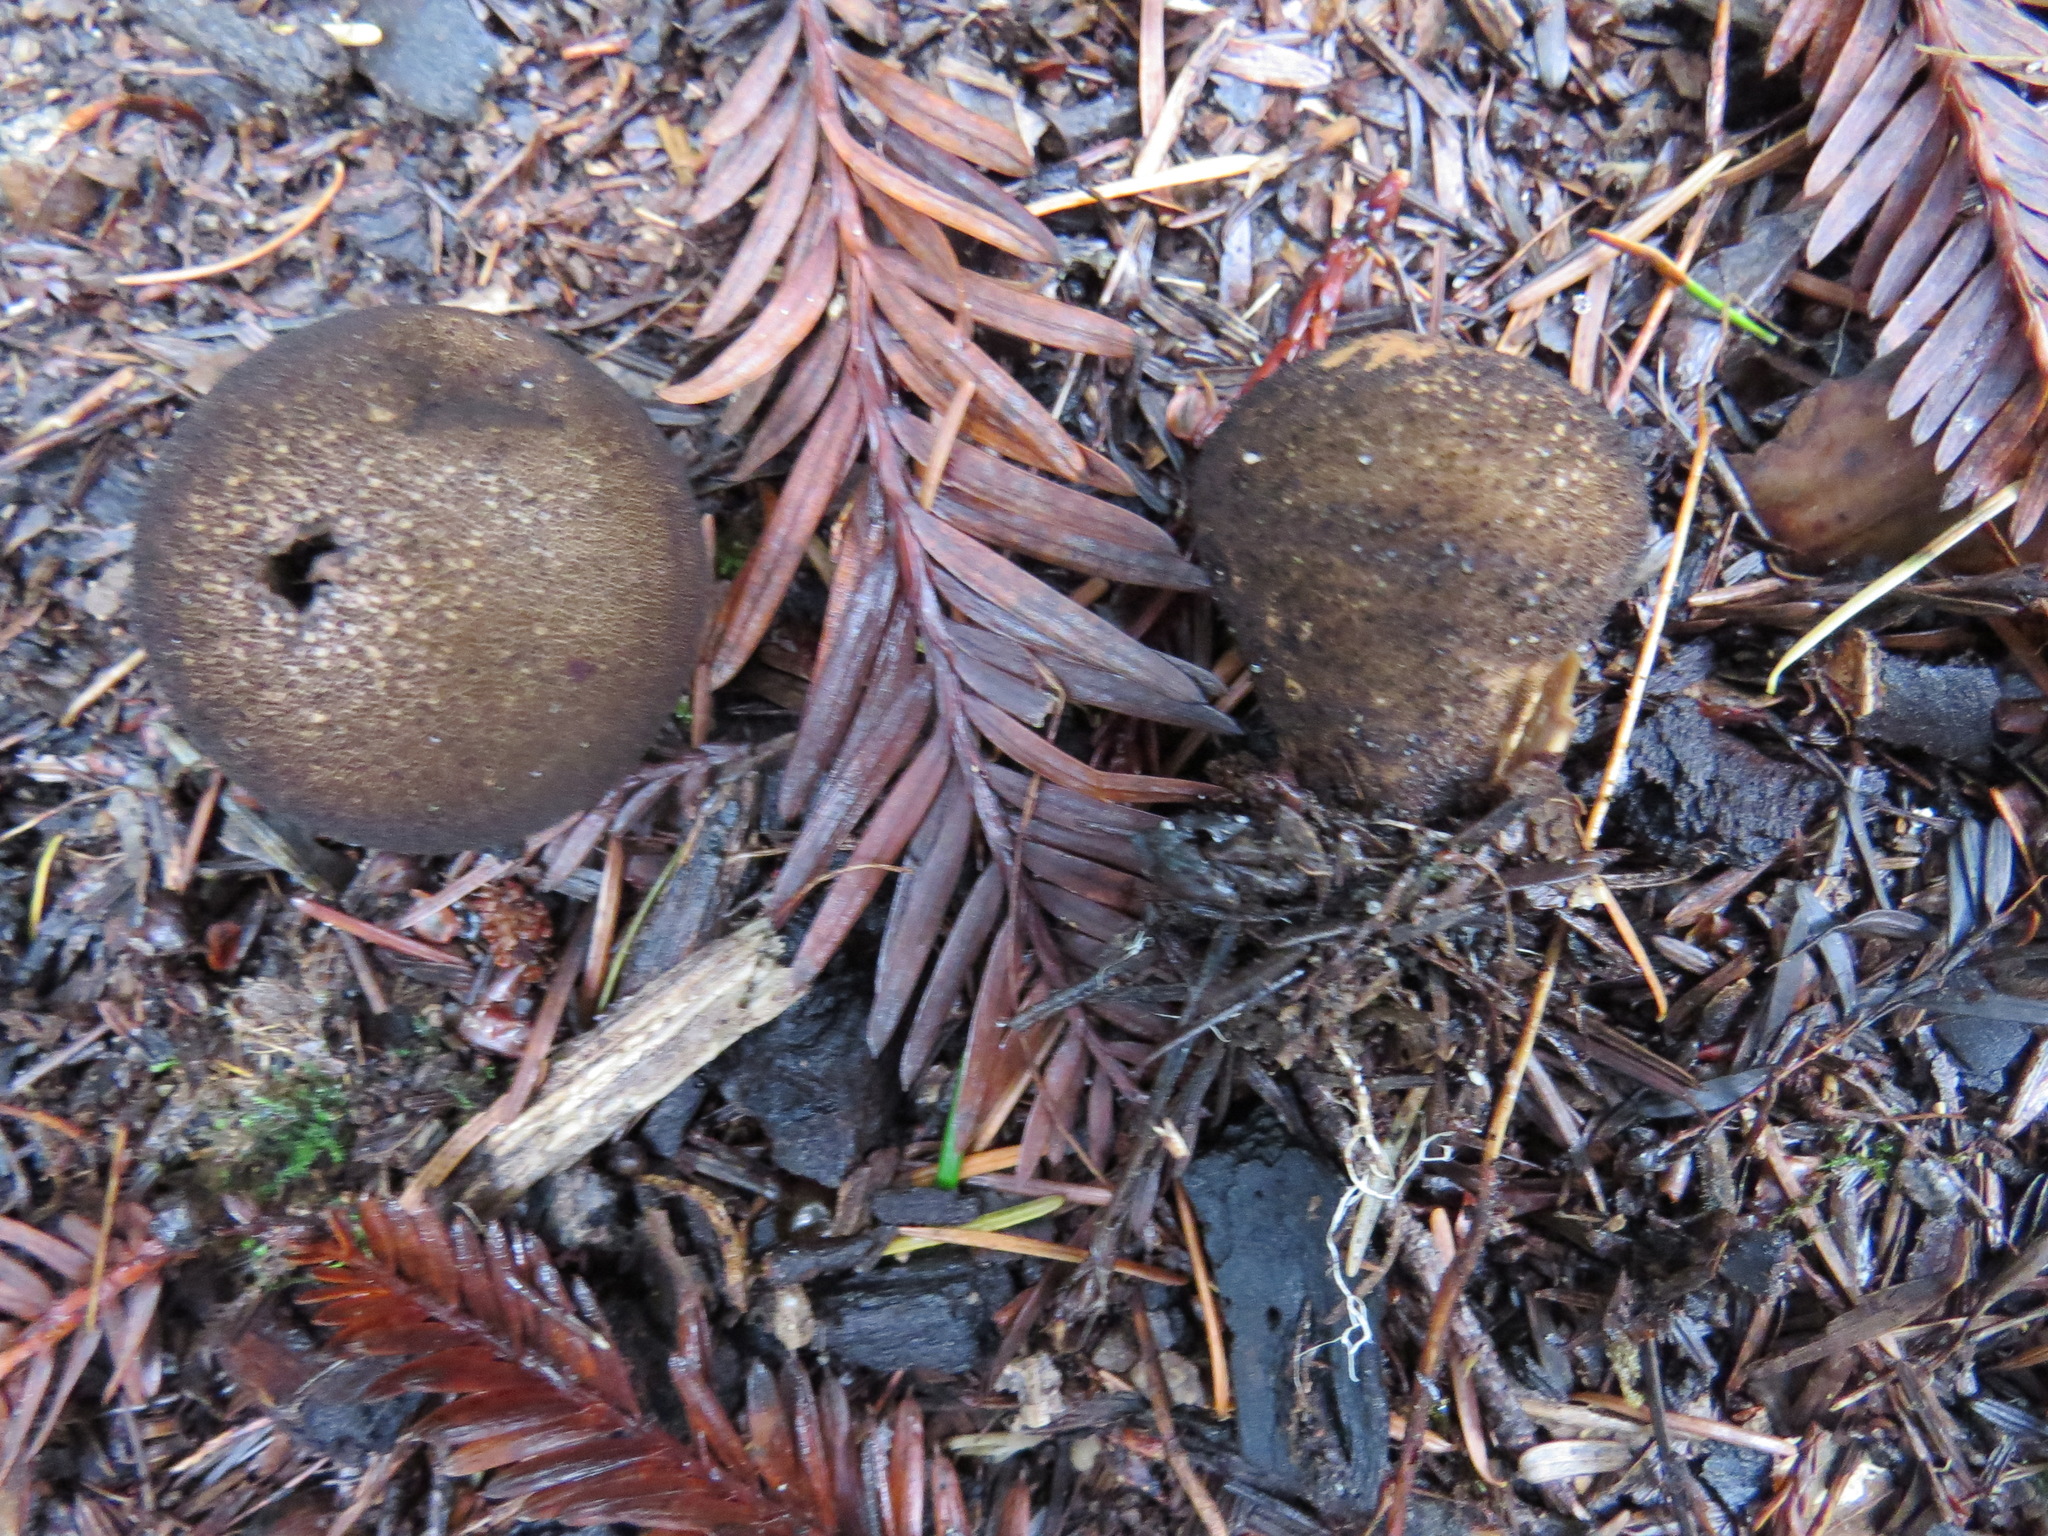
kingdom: Fungi
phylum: Basidiomycota
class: Agaricomycetes
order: Agaricales
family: Lycoperdaceae
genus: Lycoperdon
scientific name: Lycoperdon umbrinum
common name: Umber-brown puffball
